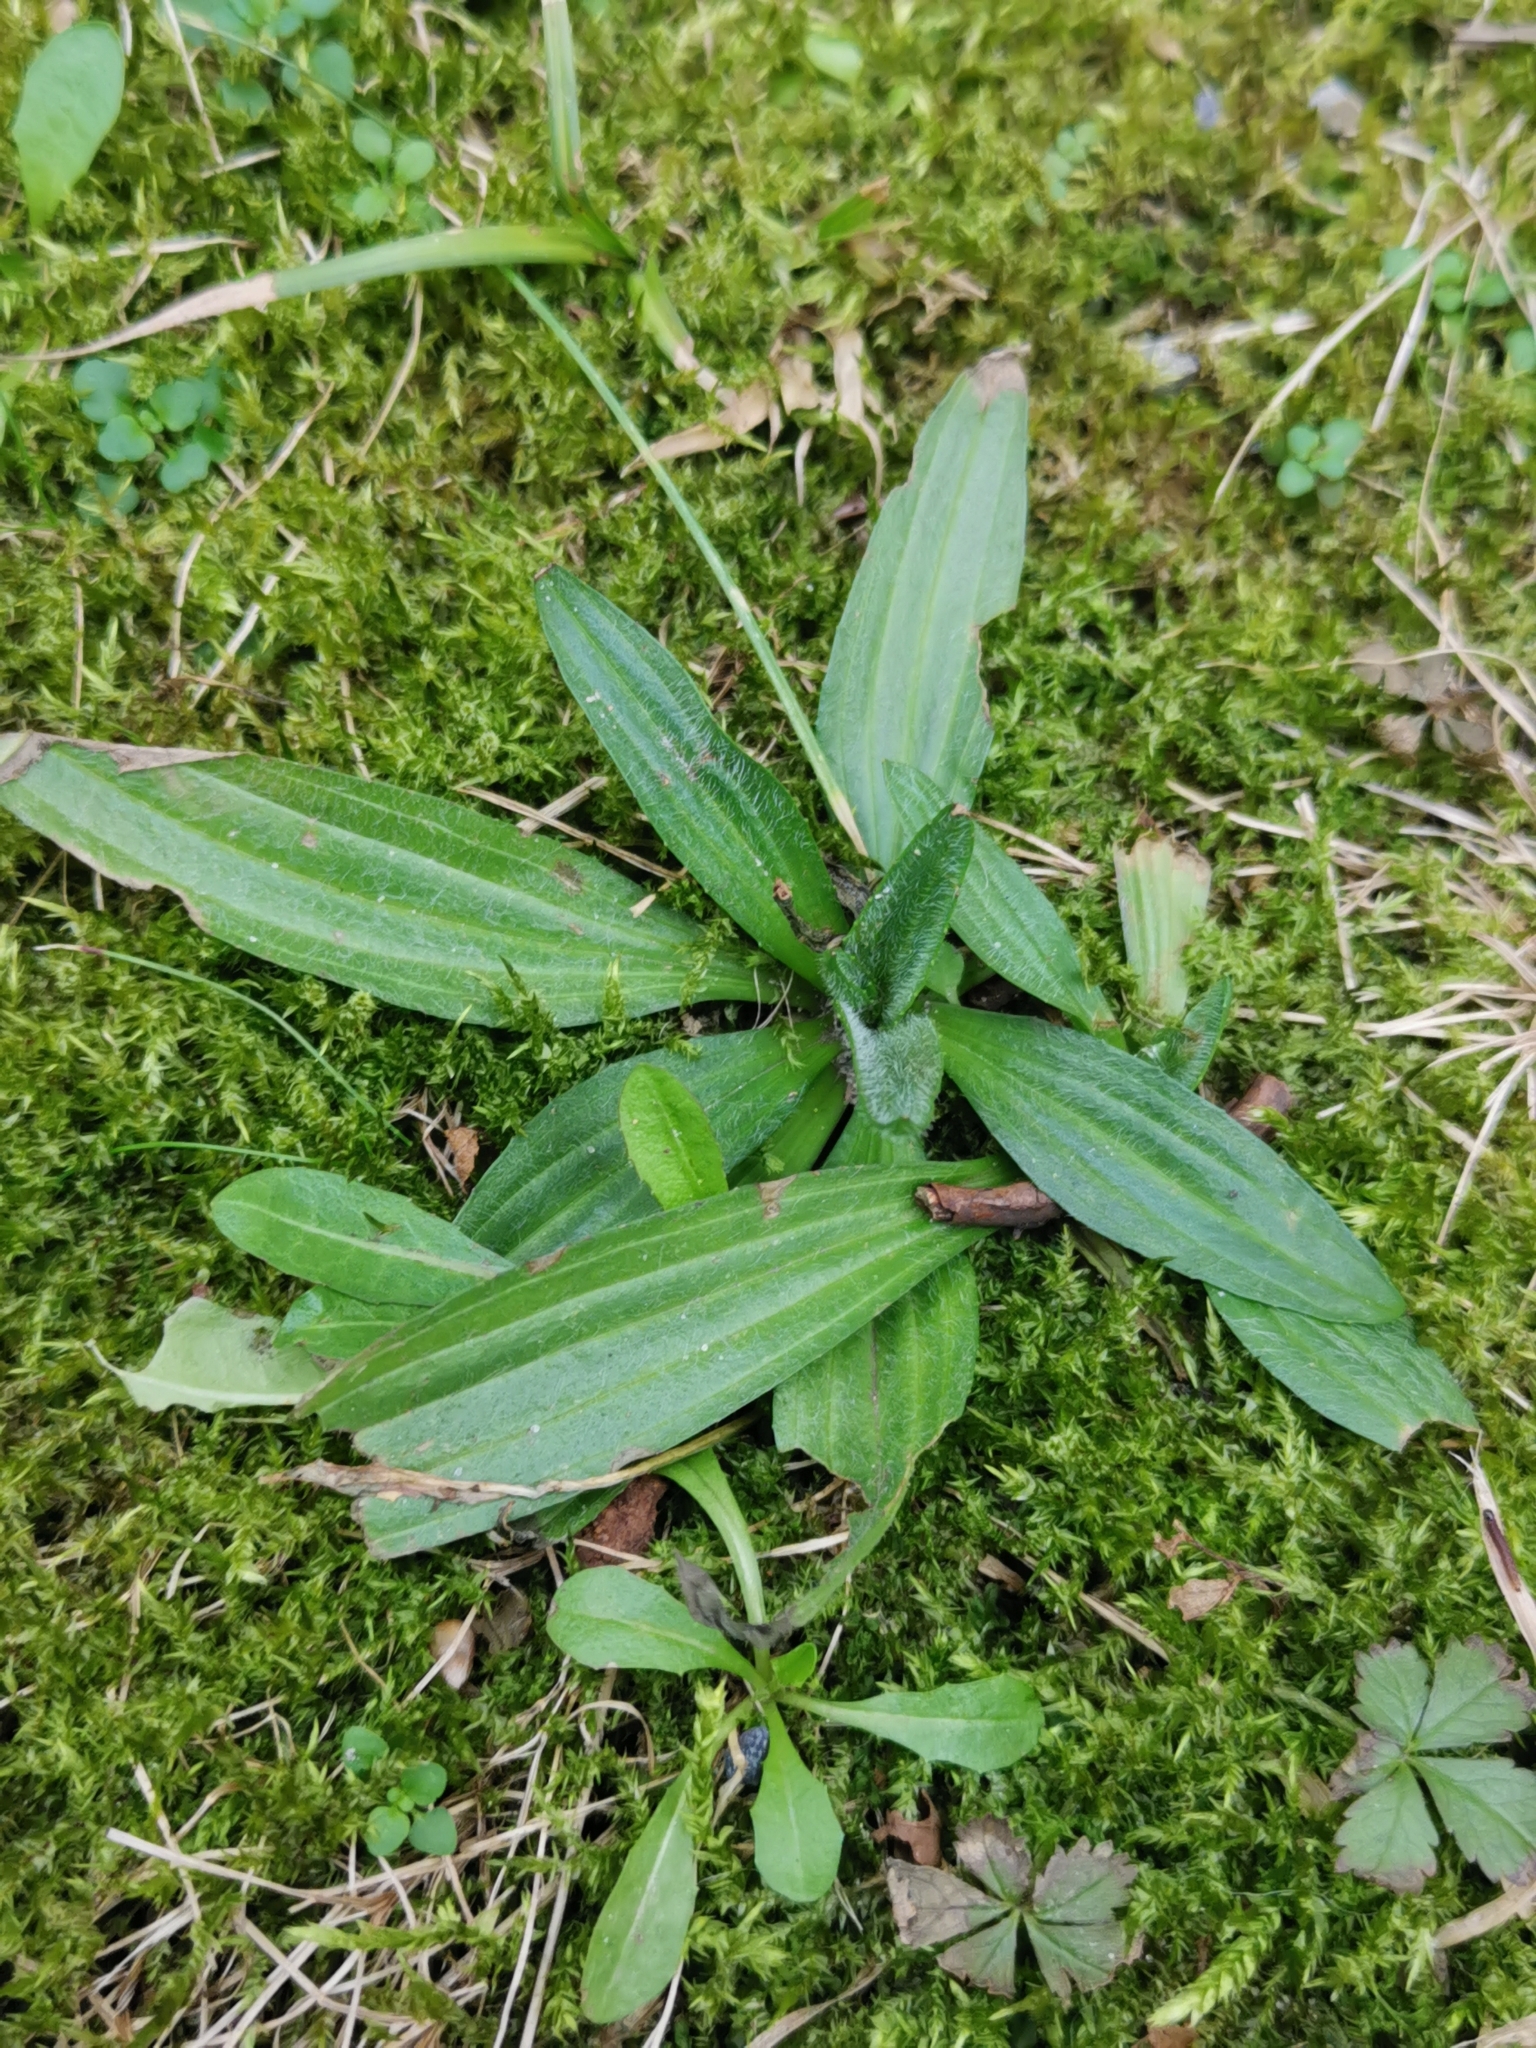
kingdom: Plantae
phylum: Tracheophyta
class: Magnoliopsida
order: Lamiales
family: Plantaginaceae
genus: Plantago
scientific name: Plantago lanceolata
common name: Ribwort plantain
